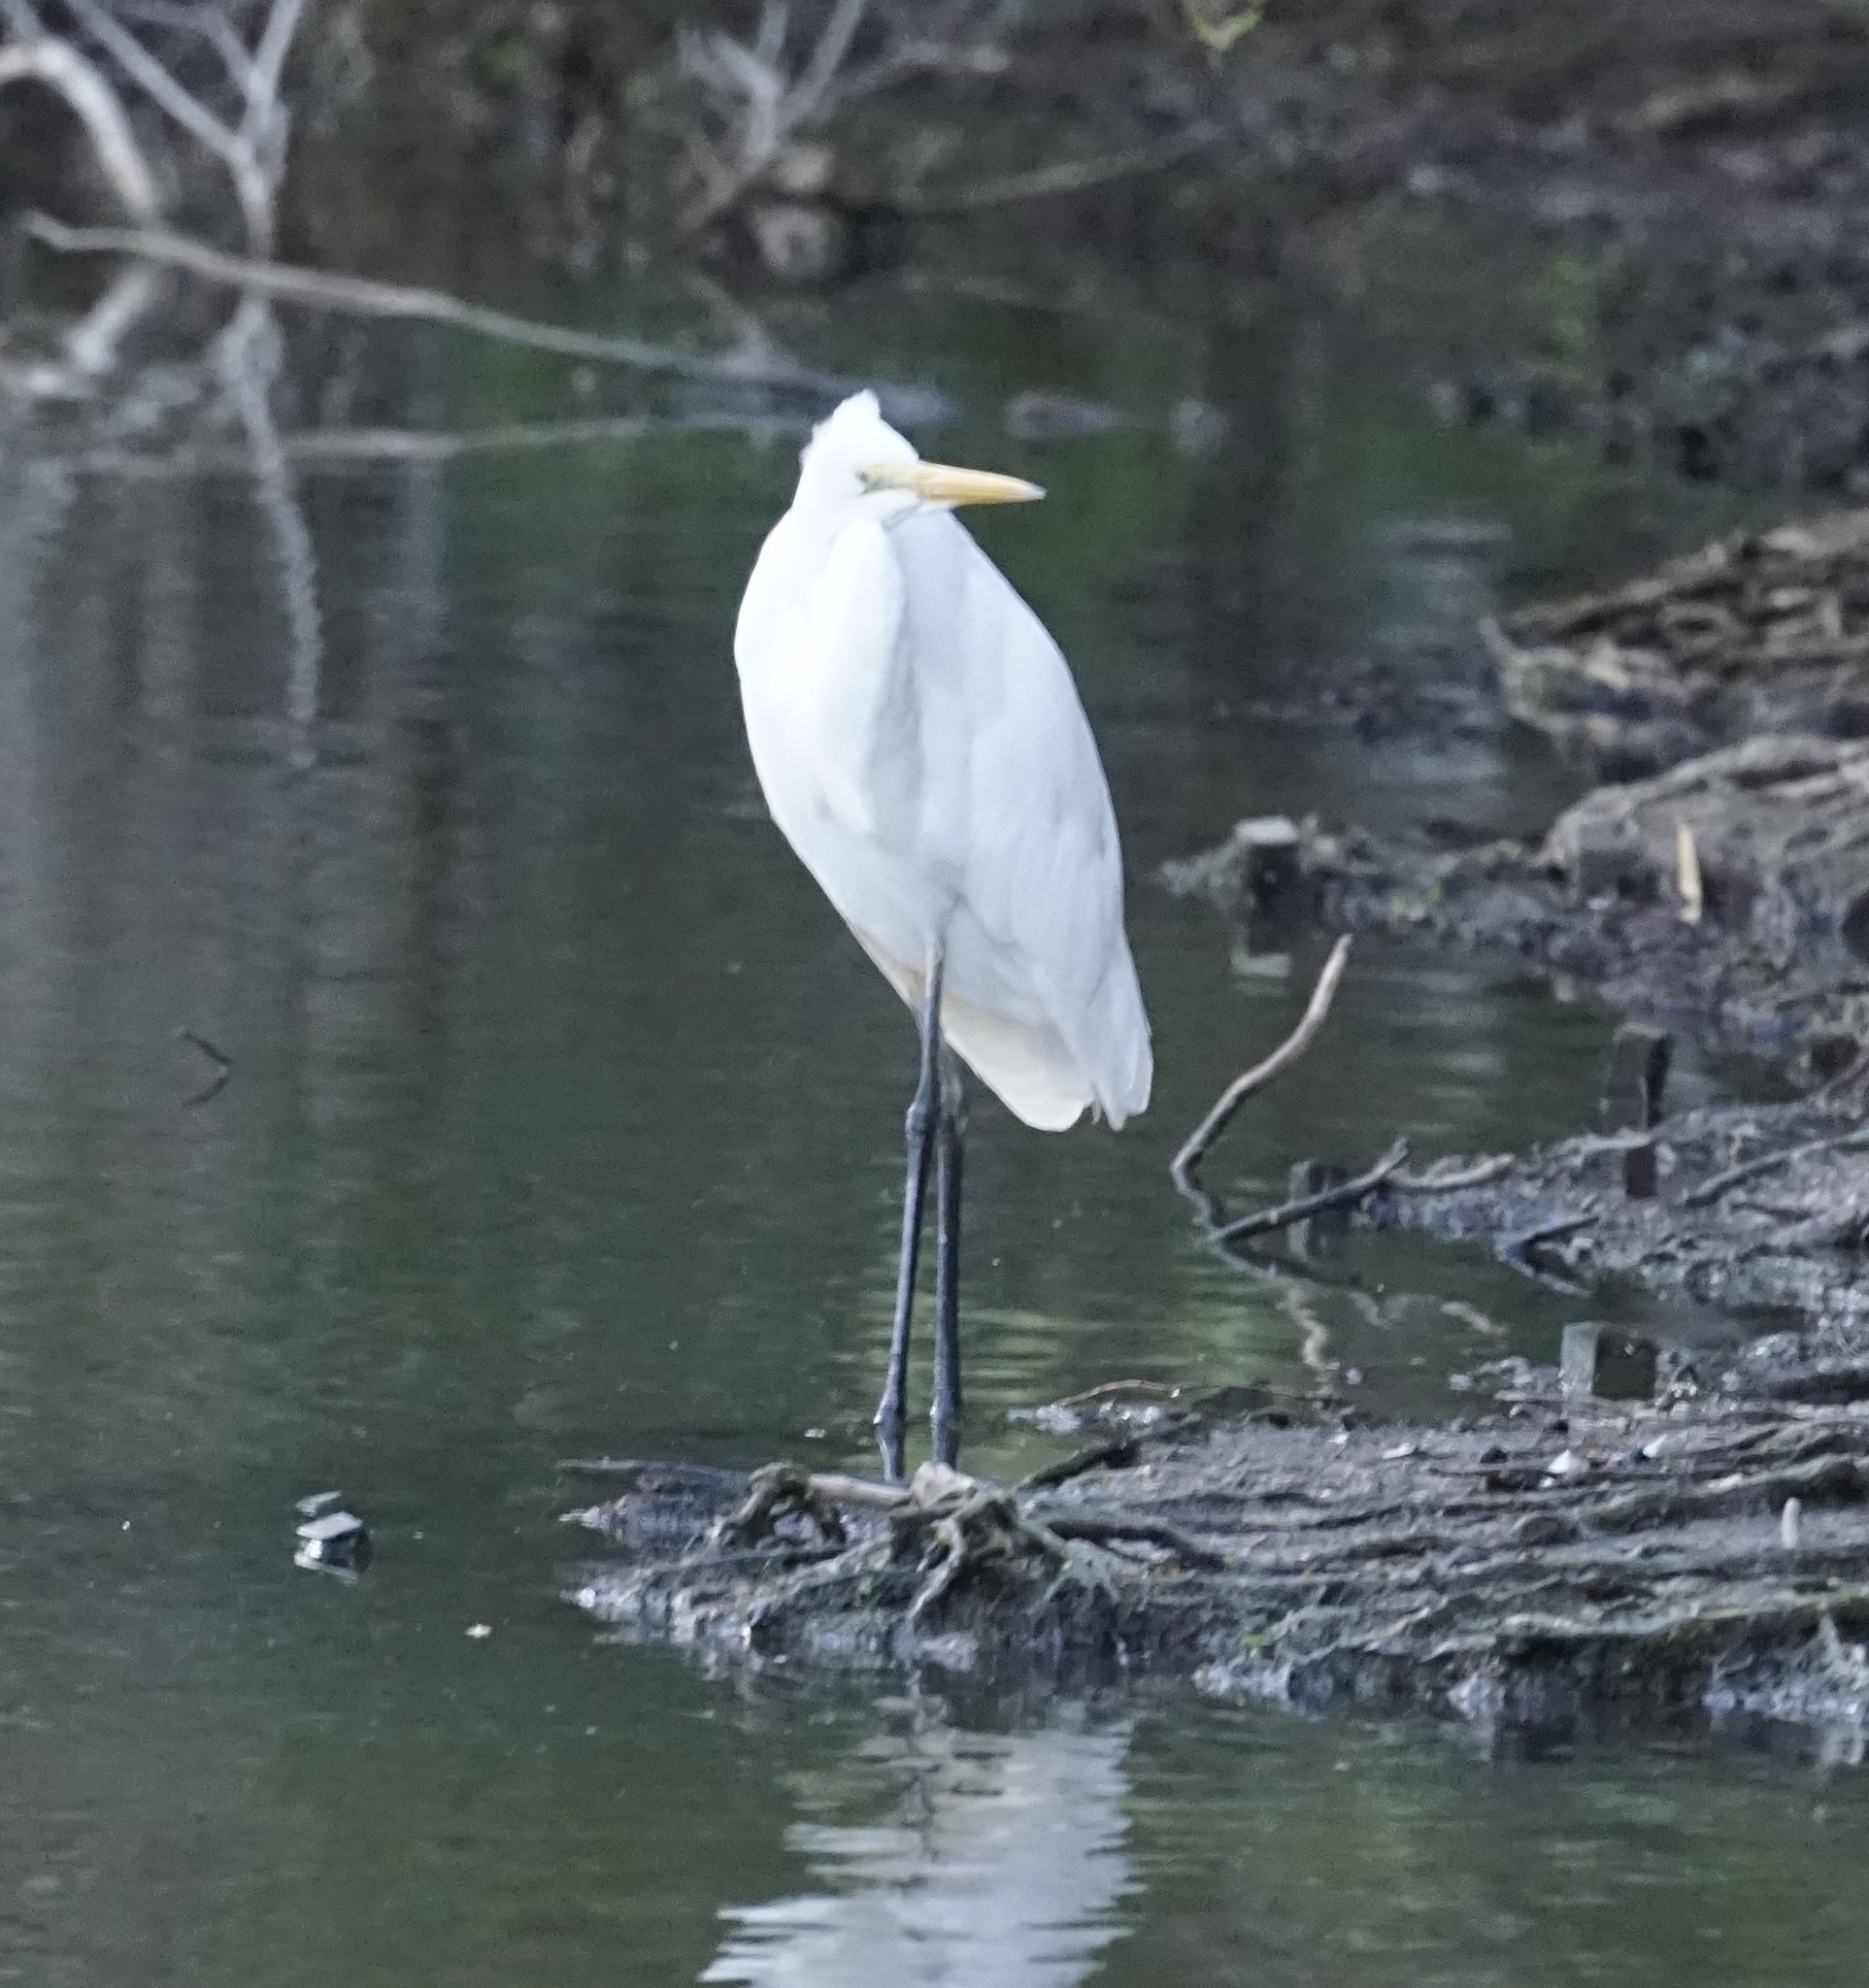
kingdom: Animalia
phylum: Chordata
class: Aves
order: Pelecaniformes
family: Ardeidae
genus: Ardea
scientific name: Ardea modesta
